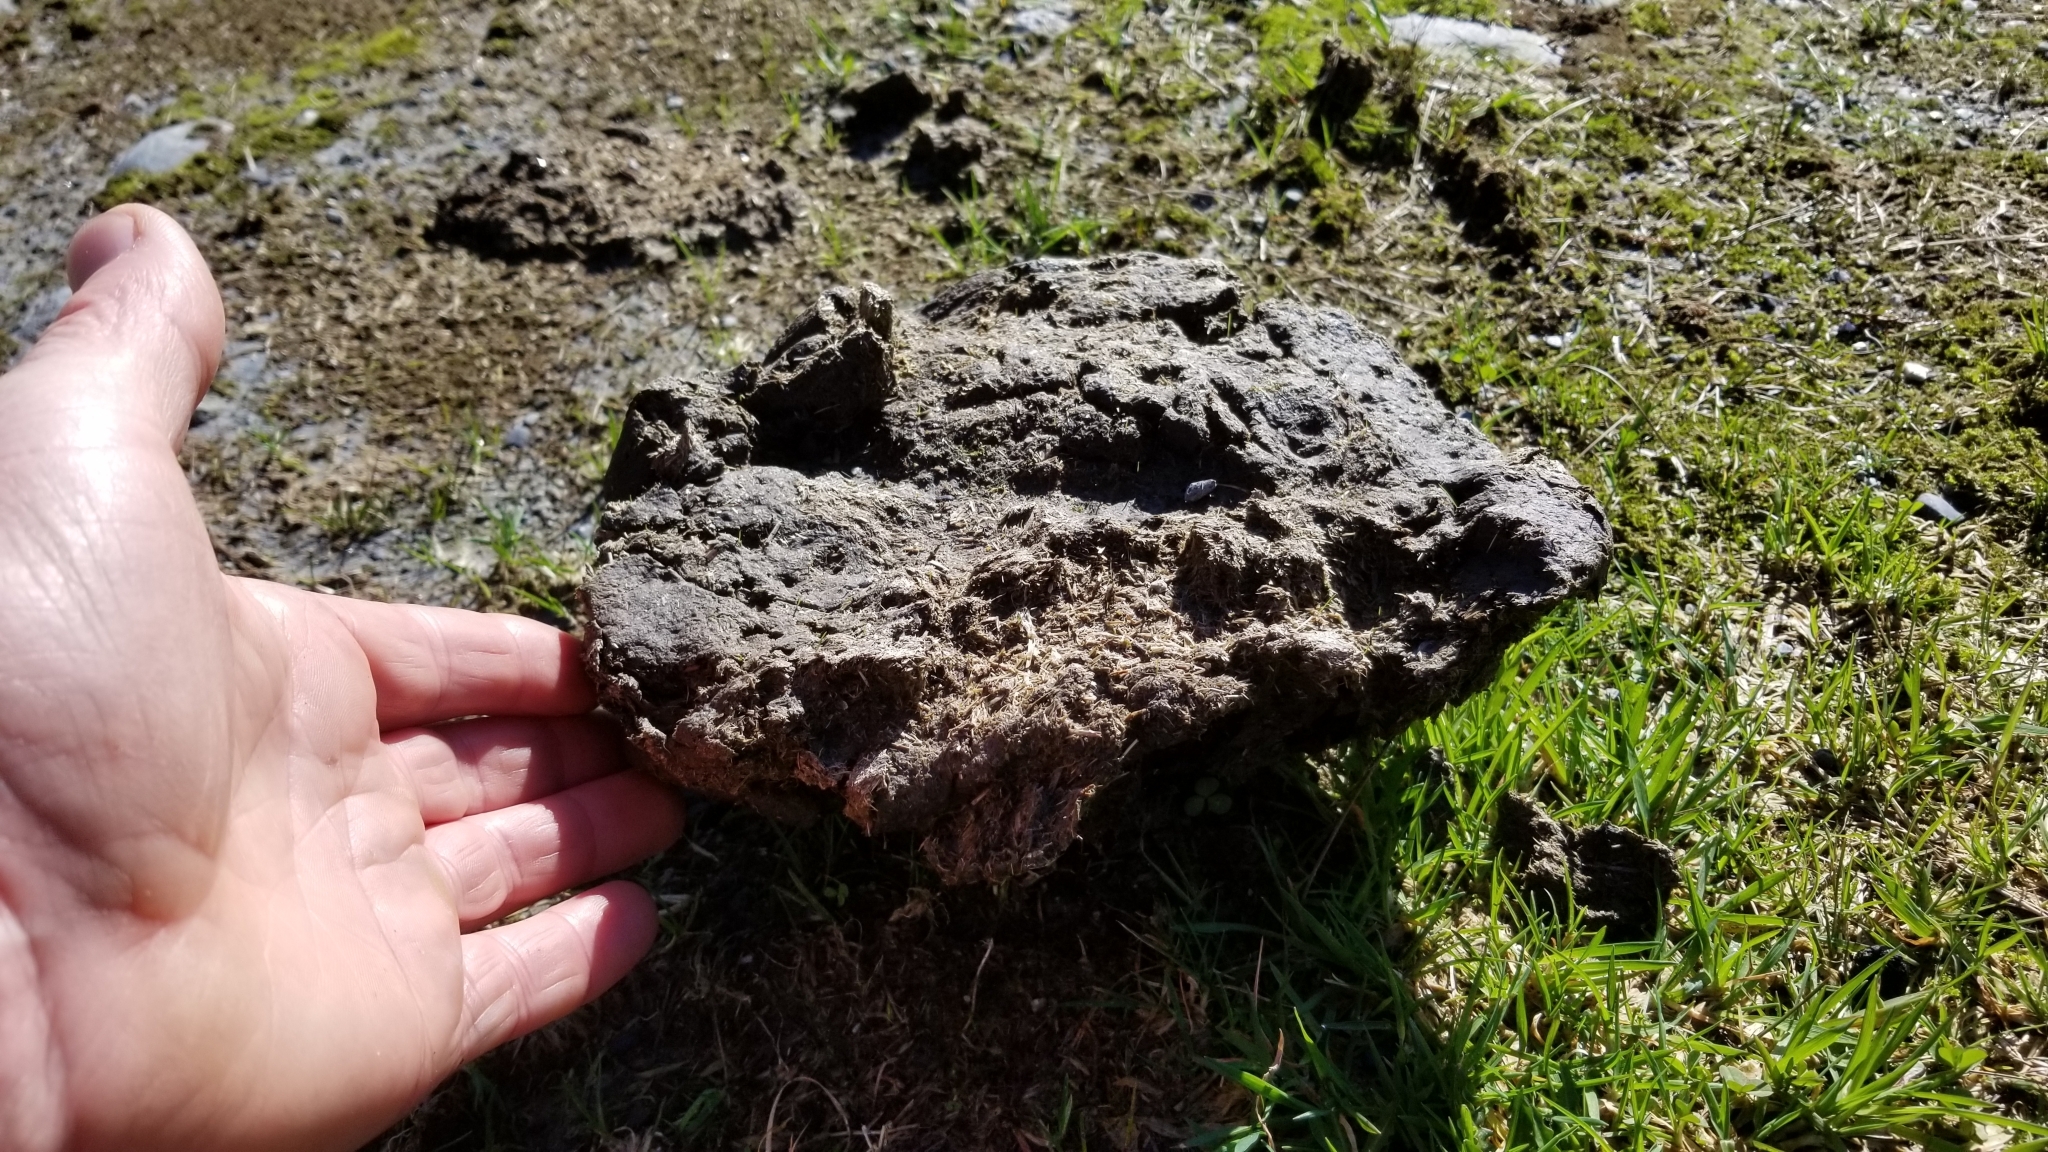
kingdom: Animalia
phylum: Chordata
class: Mammalia
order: Artiodactyla
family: Bovidae
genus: Bos
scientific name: Bos taurus
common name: Domesticated cattle
